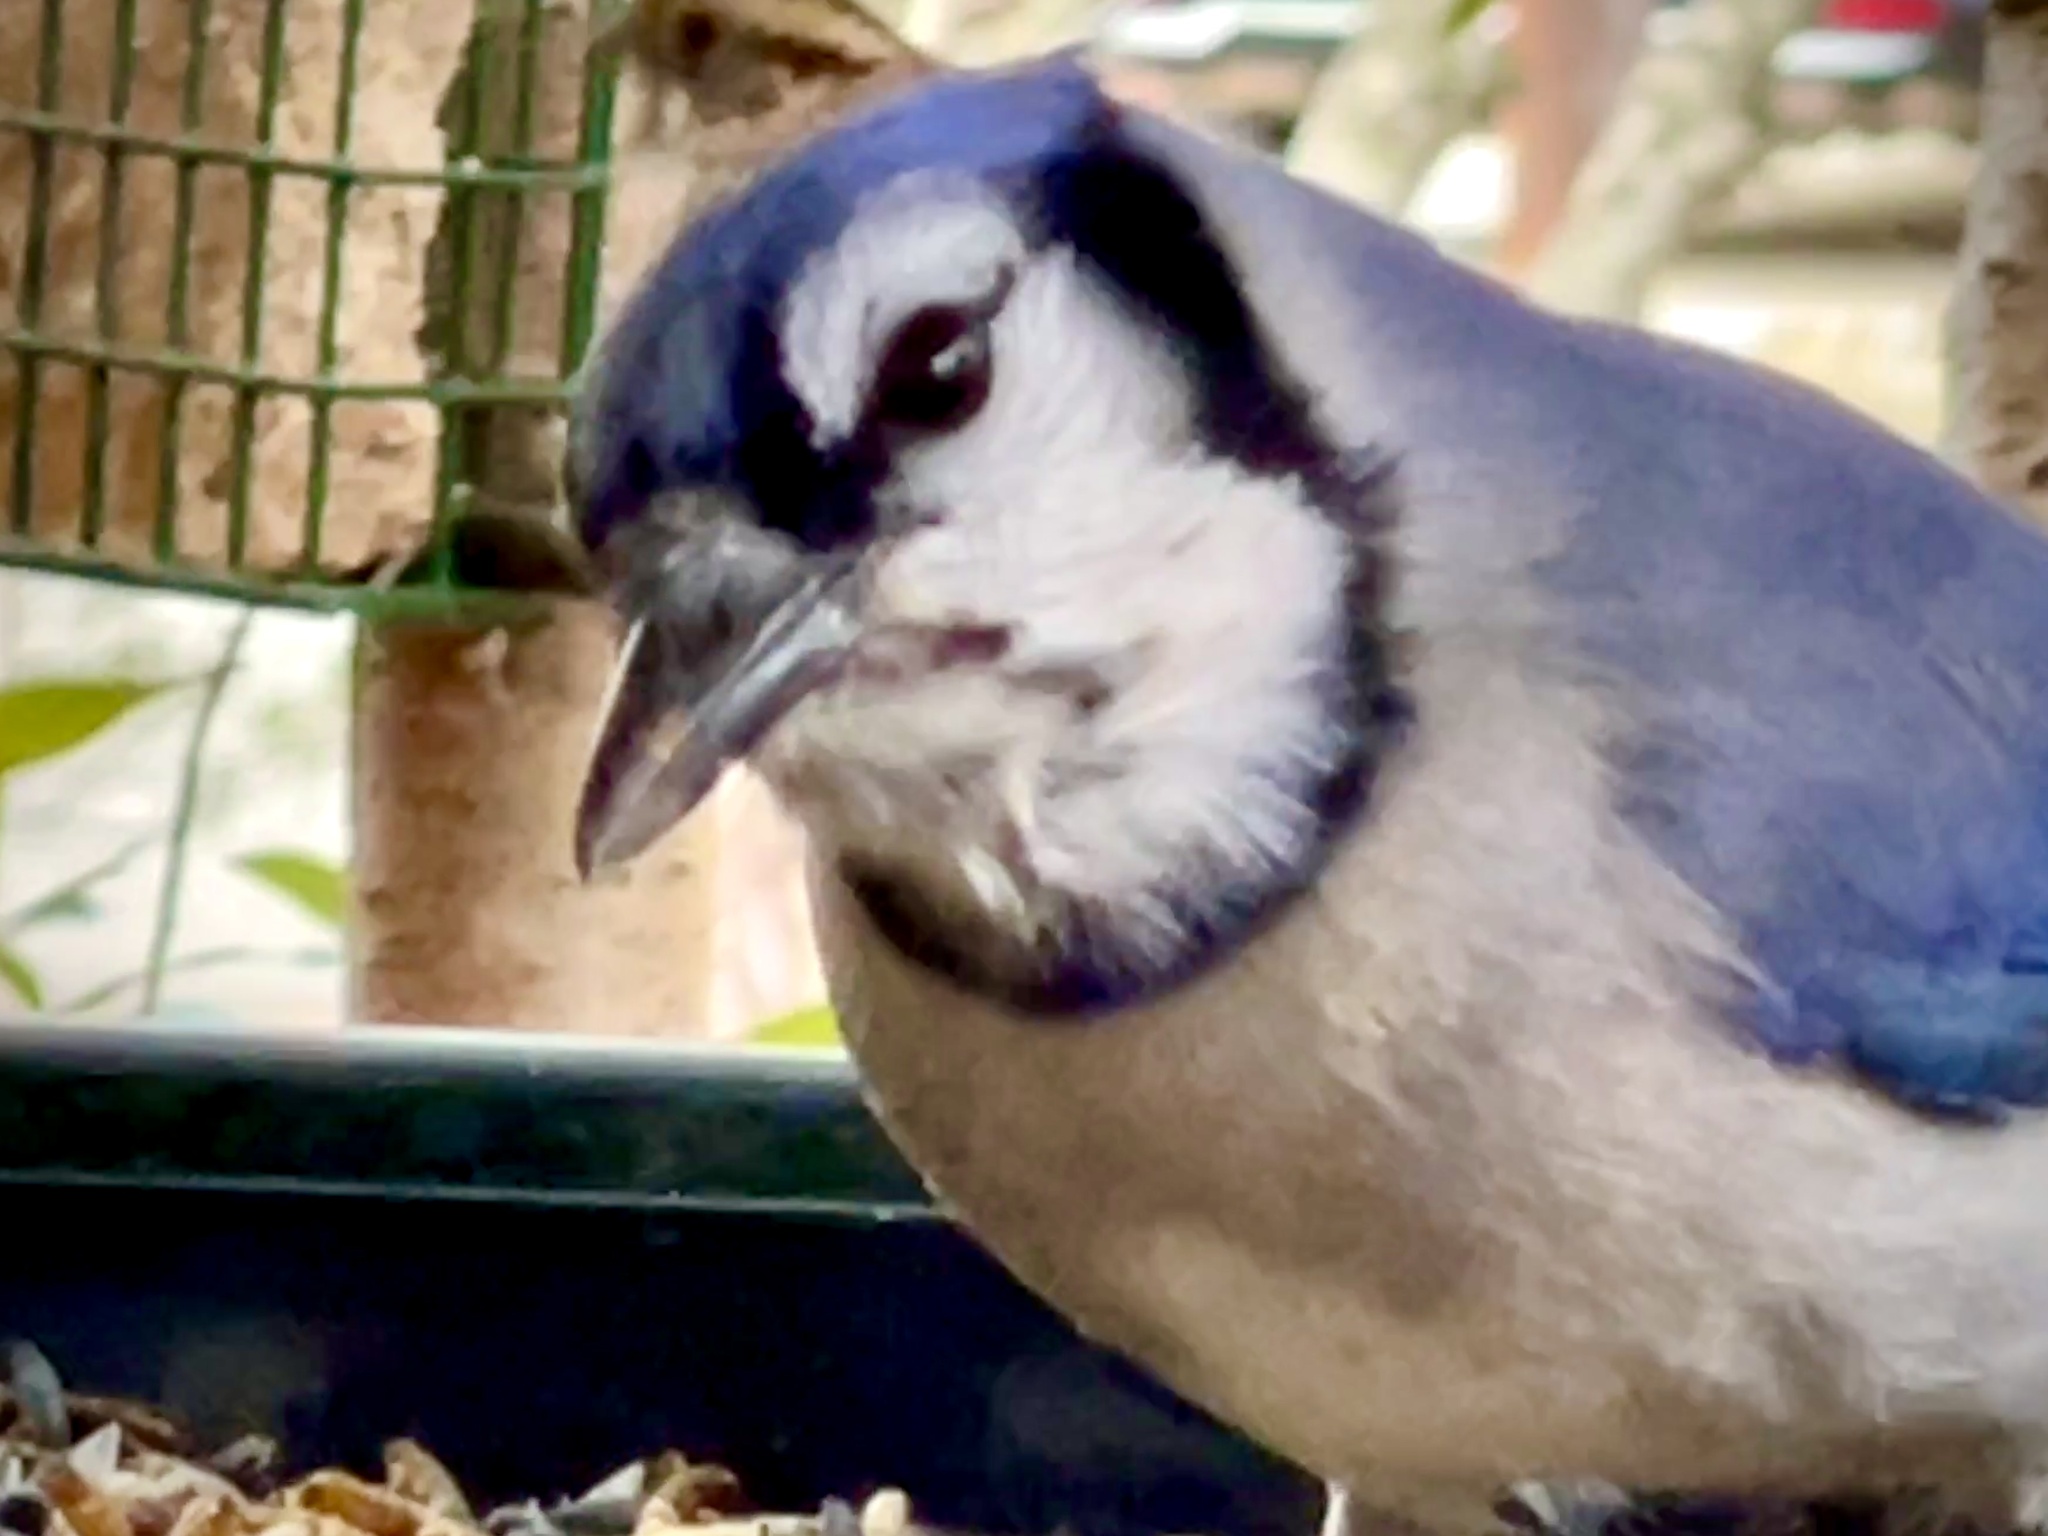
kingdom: Animalia
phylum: Chordata
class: Aves
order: Passeriformes
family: Corvidae
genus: Cyanocitta
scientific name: Cyanocitta cristata
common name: Blue jay
